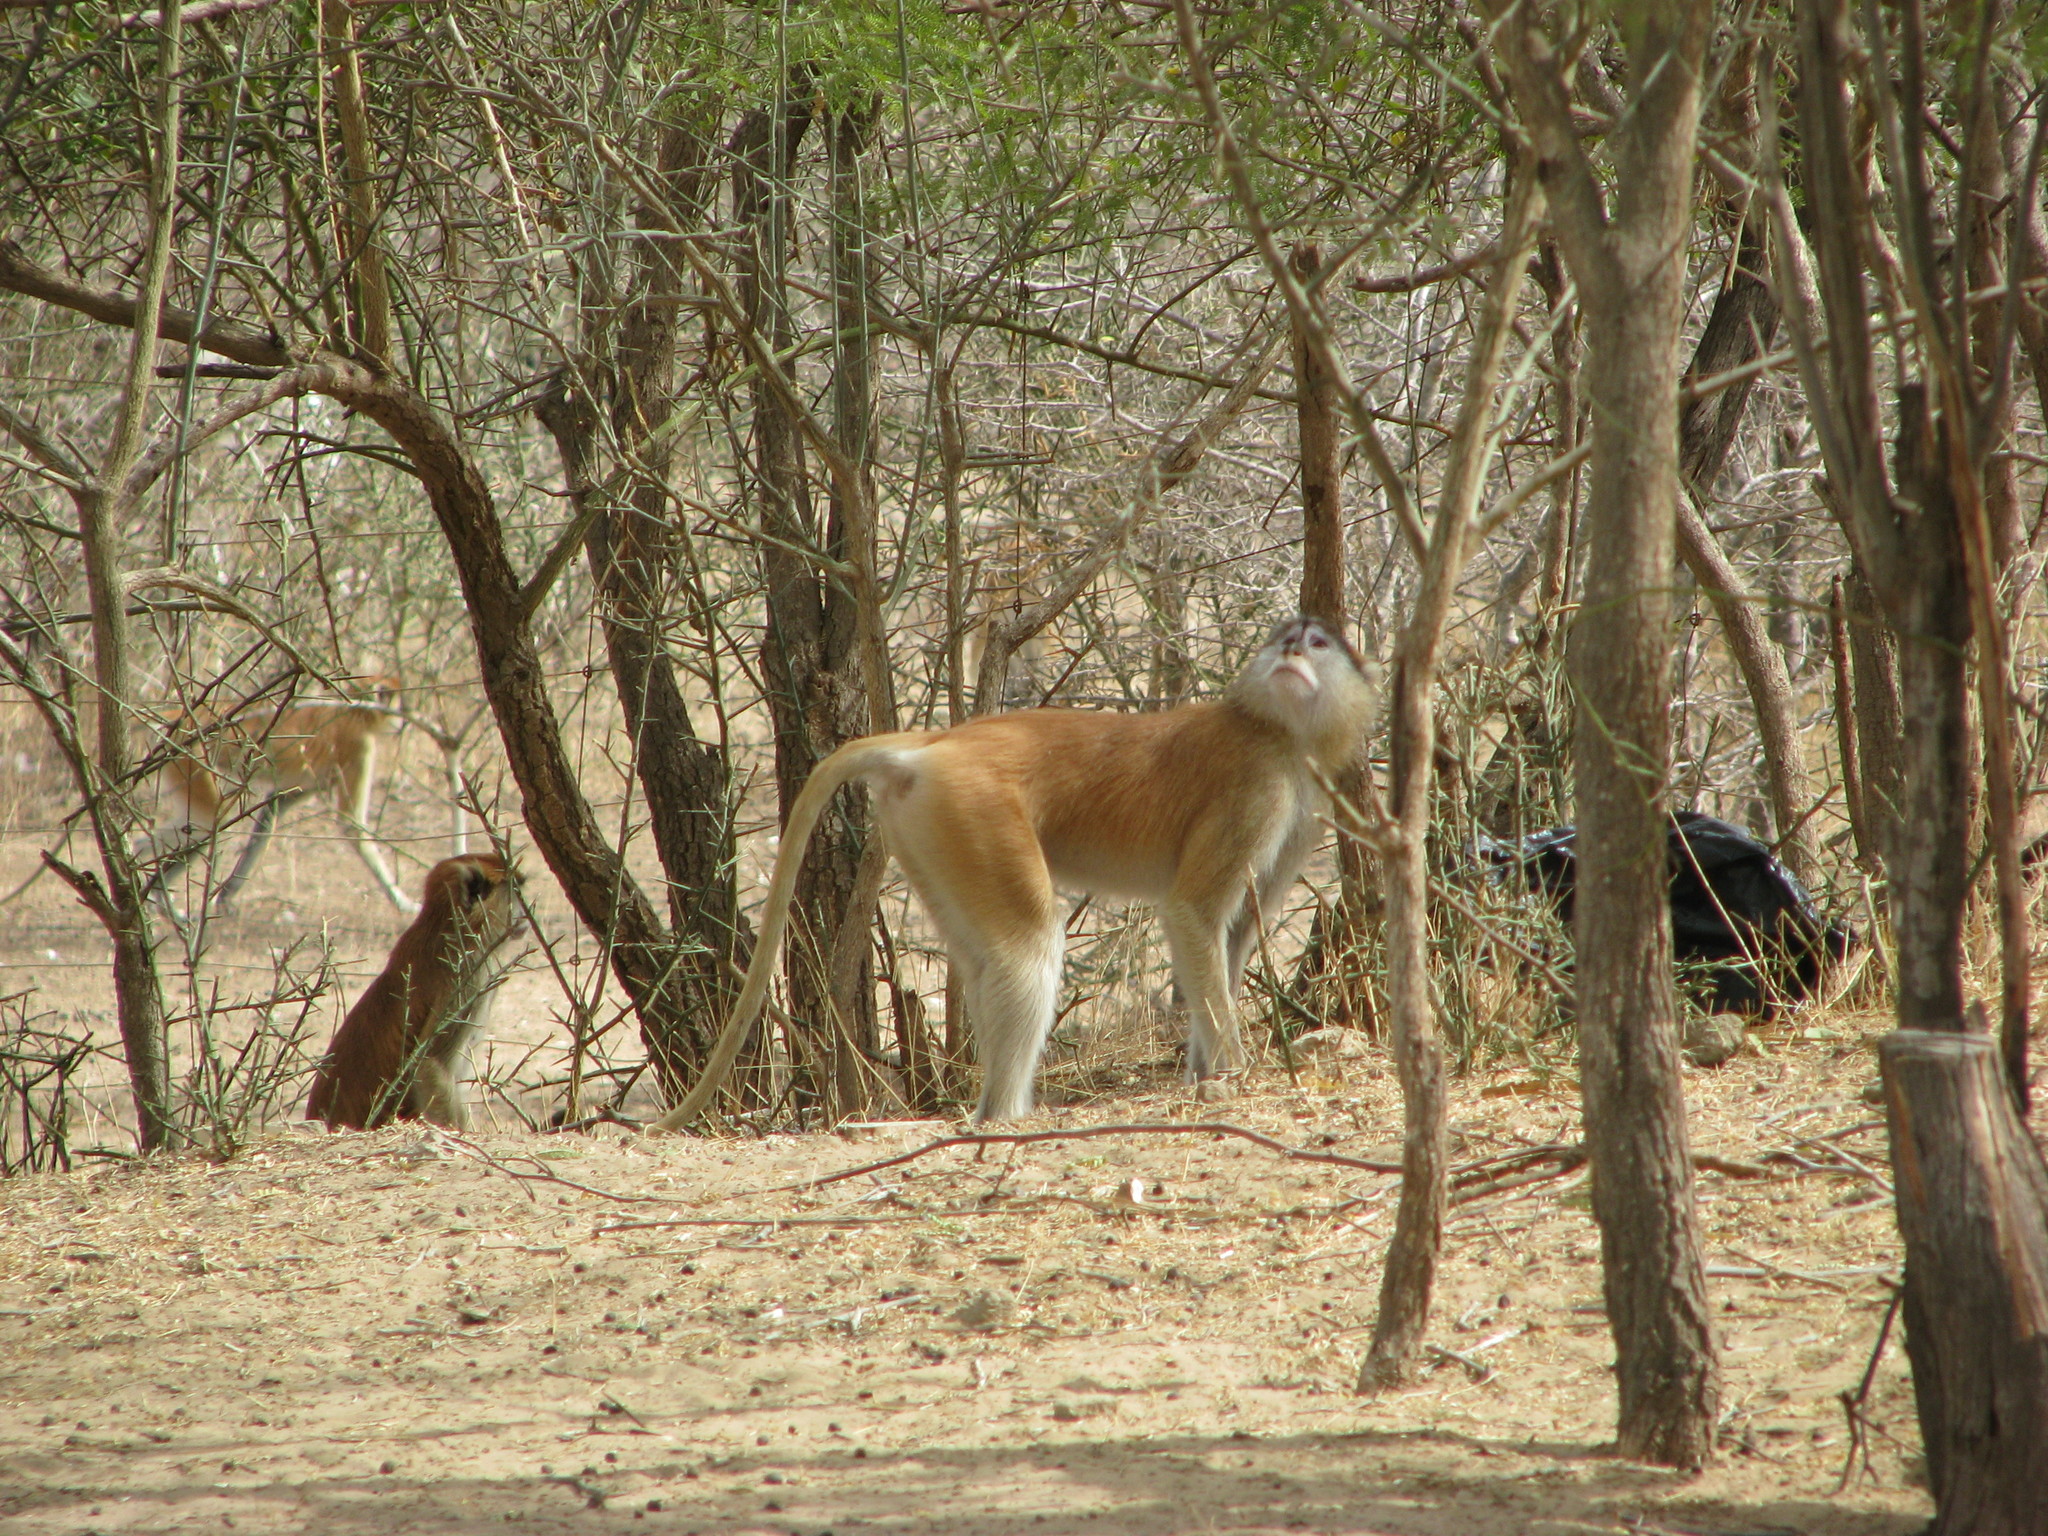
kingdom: Animalia
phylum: Chordata
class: Mammalia
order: Primates
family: Cercopithecidae
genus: Erythrocebus
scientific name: Erythrocebus patas
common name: Patas monkey
